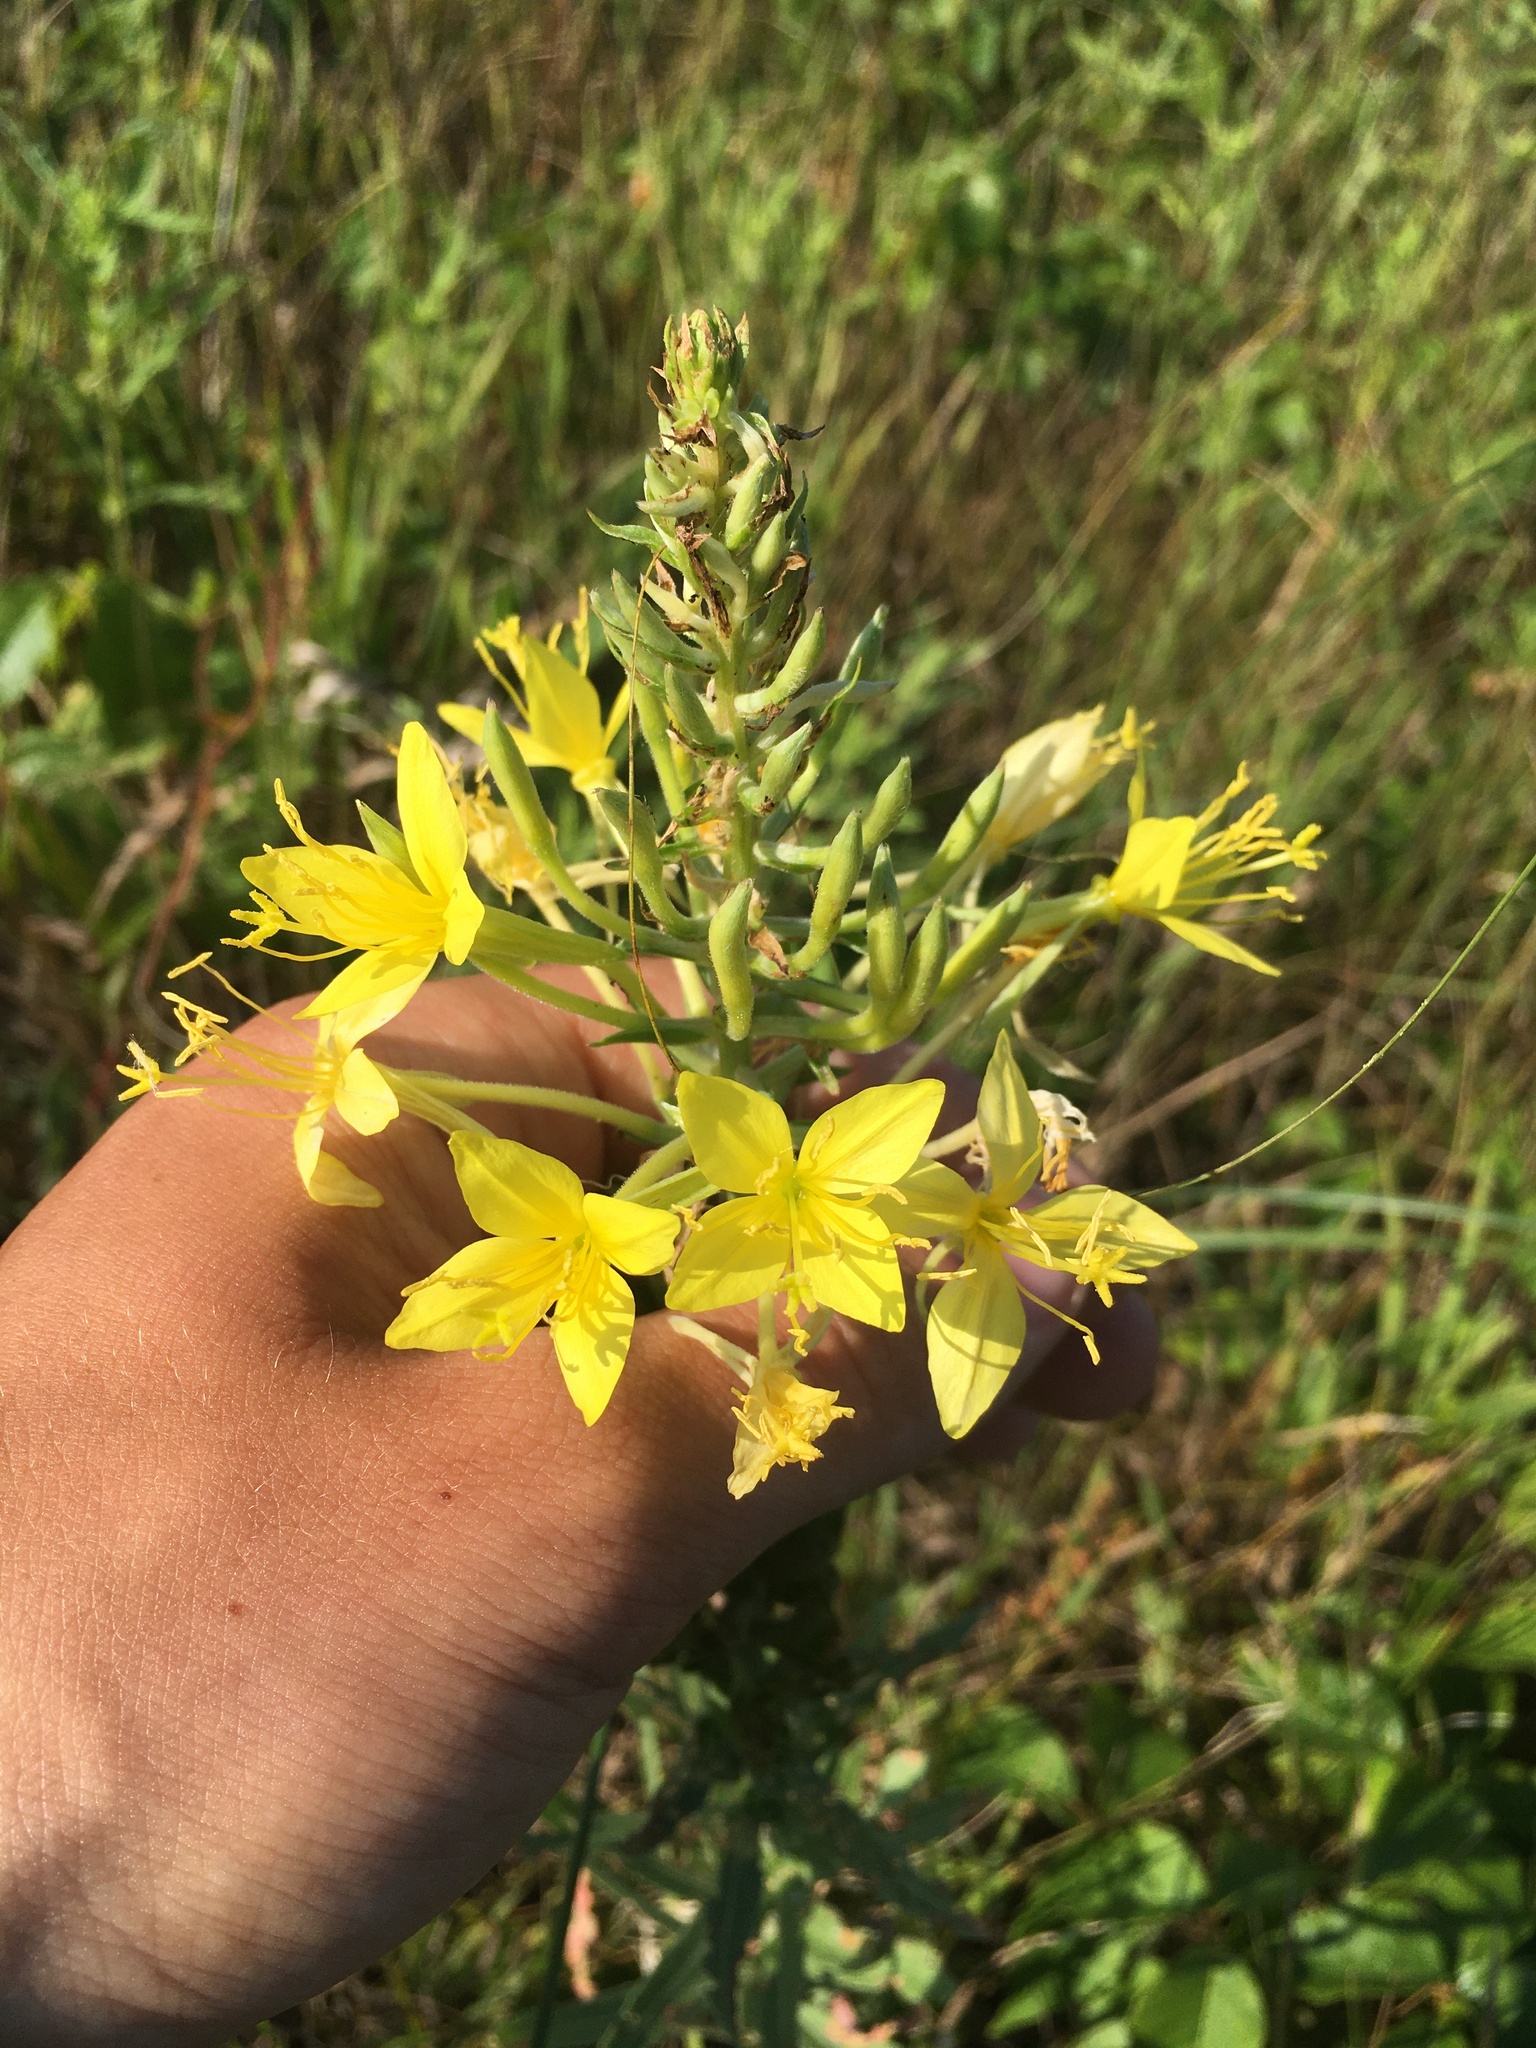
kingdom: Plantae
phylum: Tracheophyta
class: Magnoliopsida
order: Myrtales
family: Onagraceae
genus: Oenothera
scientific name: Oenothera clelandii
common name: Cleland's evening-primrose
